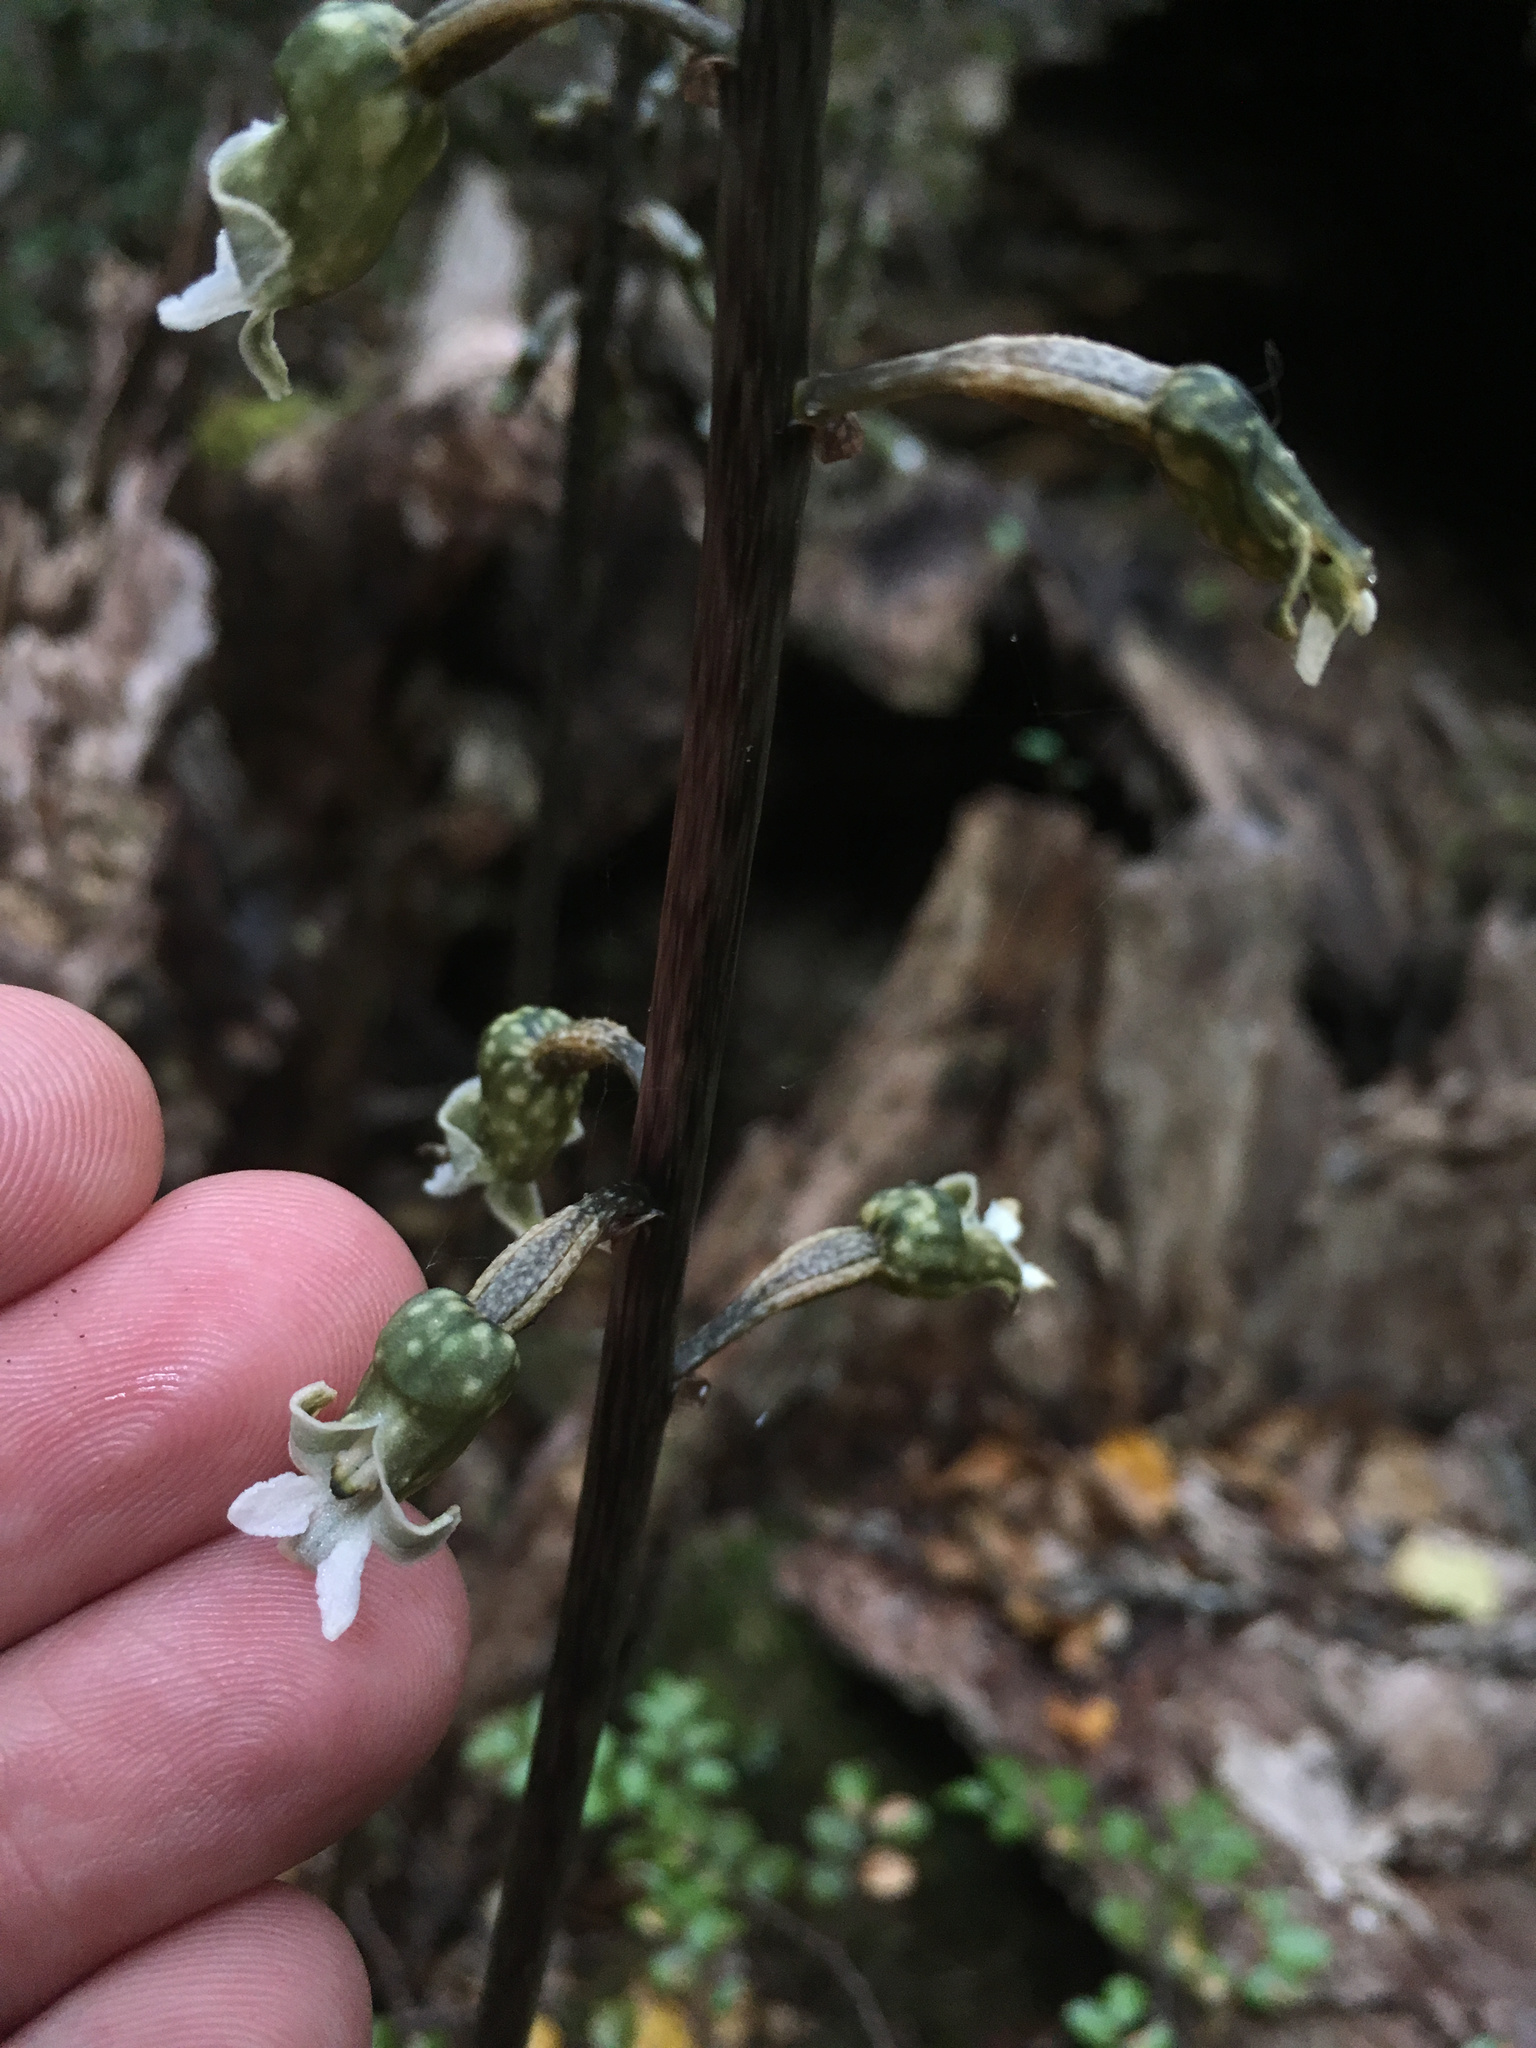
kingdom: Plantae
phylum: Tracheophyta
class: Liliopsida
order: Asparagales
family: Orchidaceae
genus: Gastrodia
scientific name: Gastrodia cunninghamii
